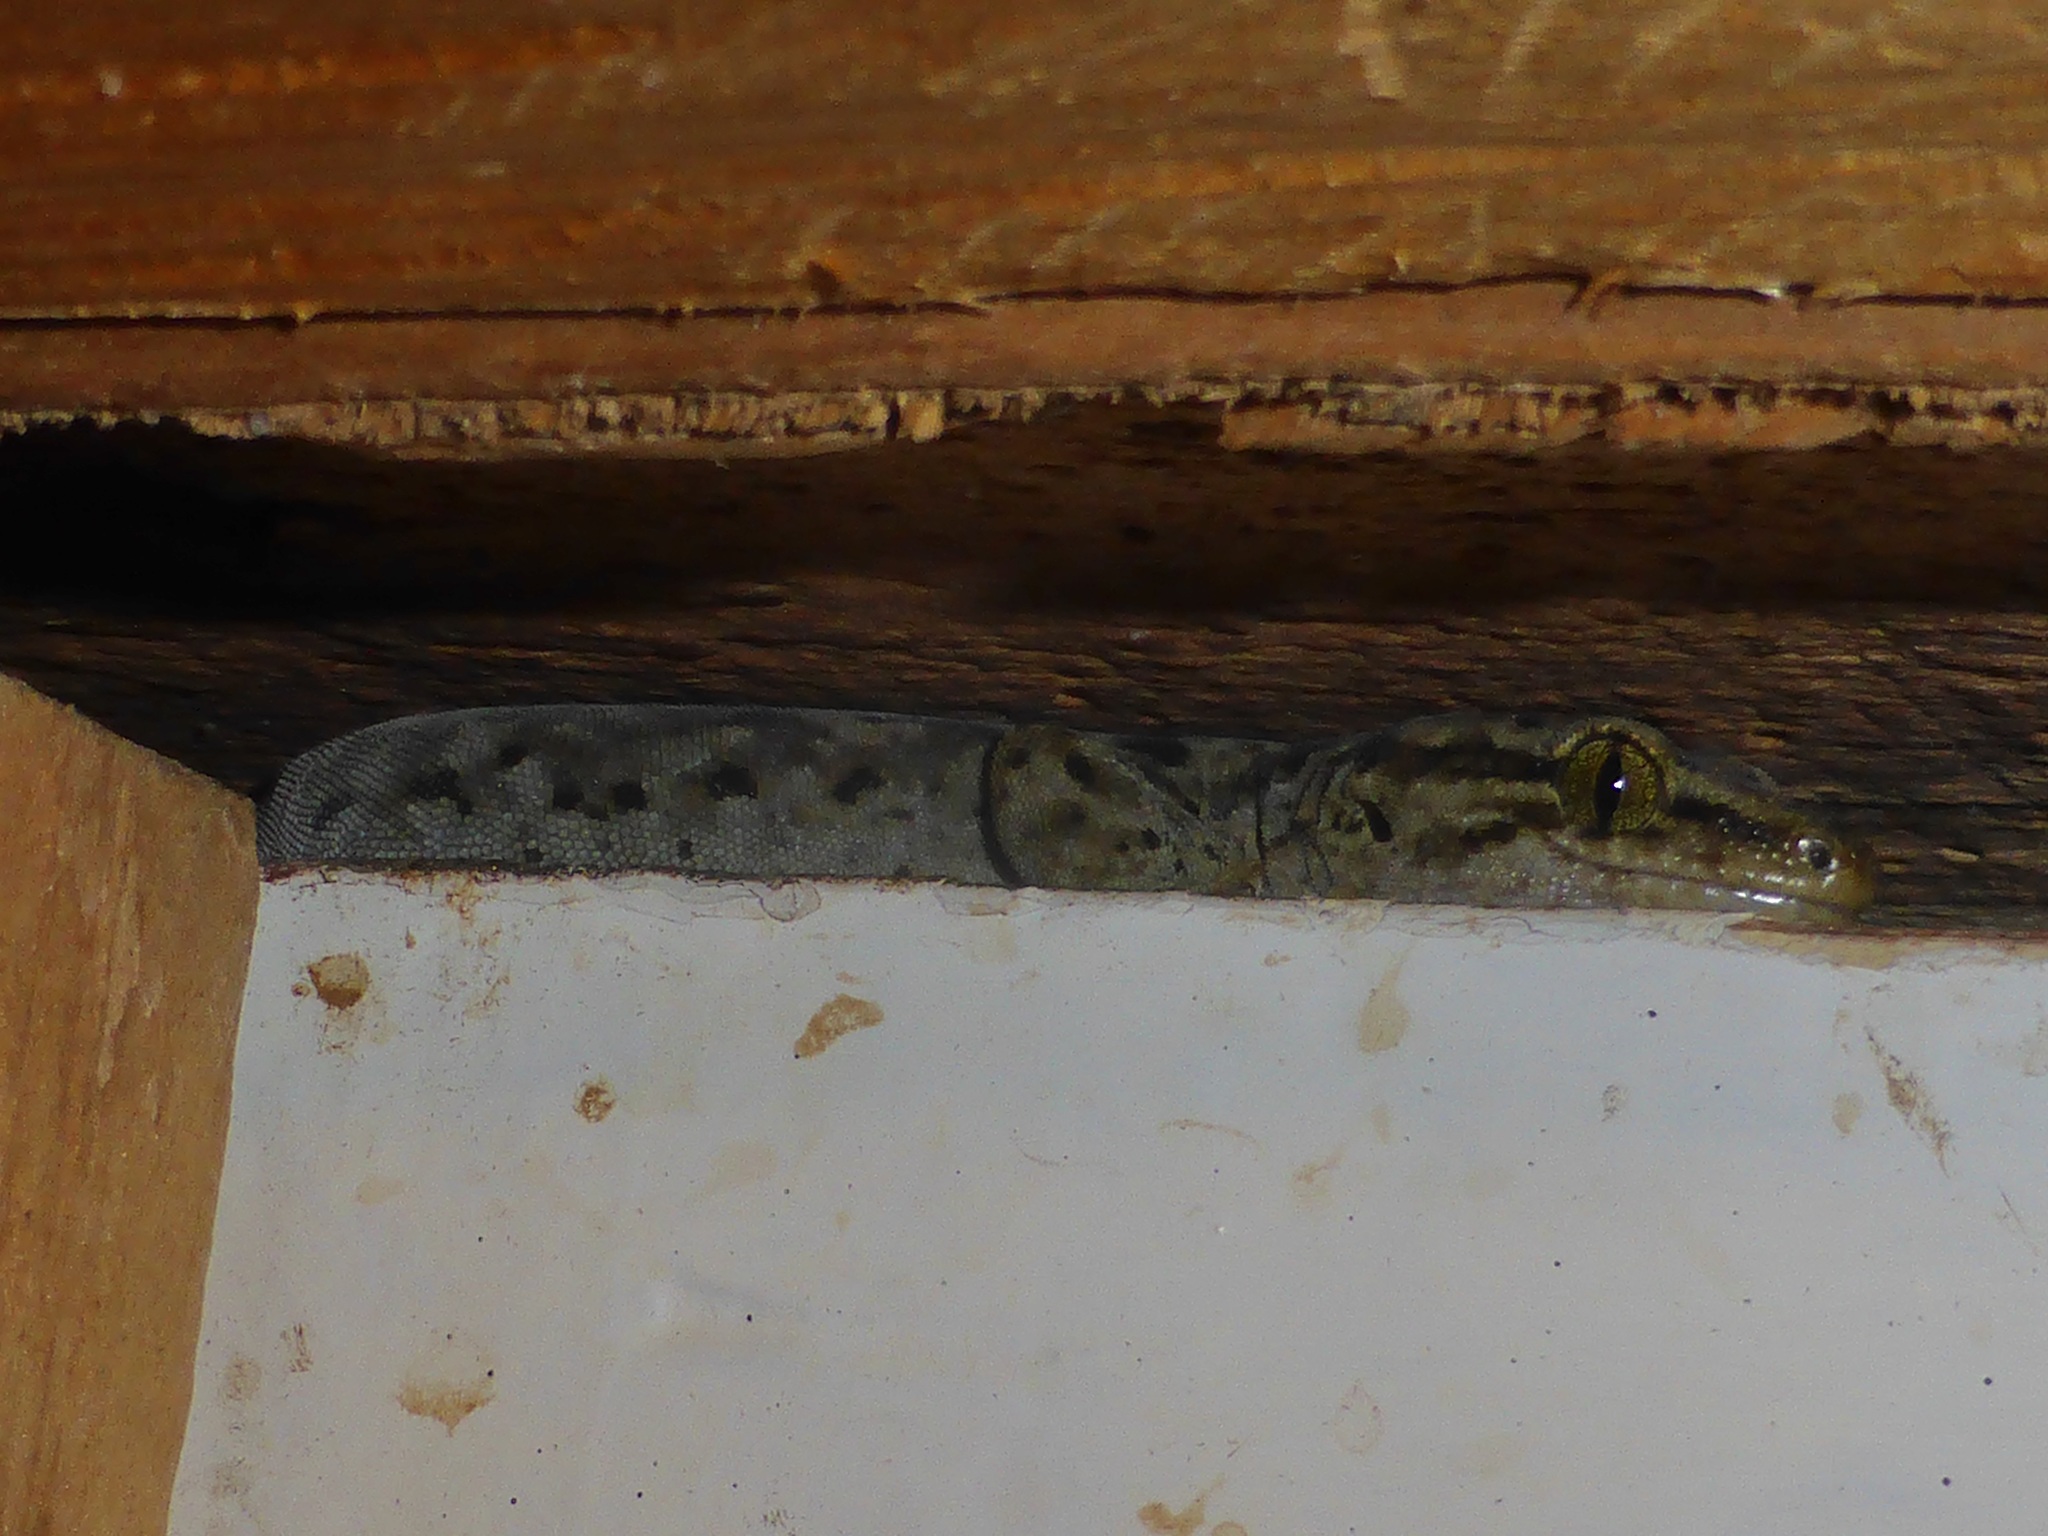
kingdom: Animalia
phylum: Chordata
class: Squamata
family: Diplodactylidae
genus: Woodworthia
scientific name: Woodworthia brunnea
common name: Canterbury gecko
